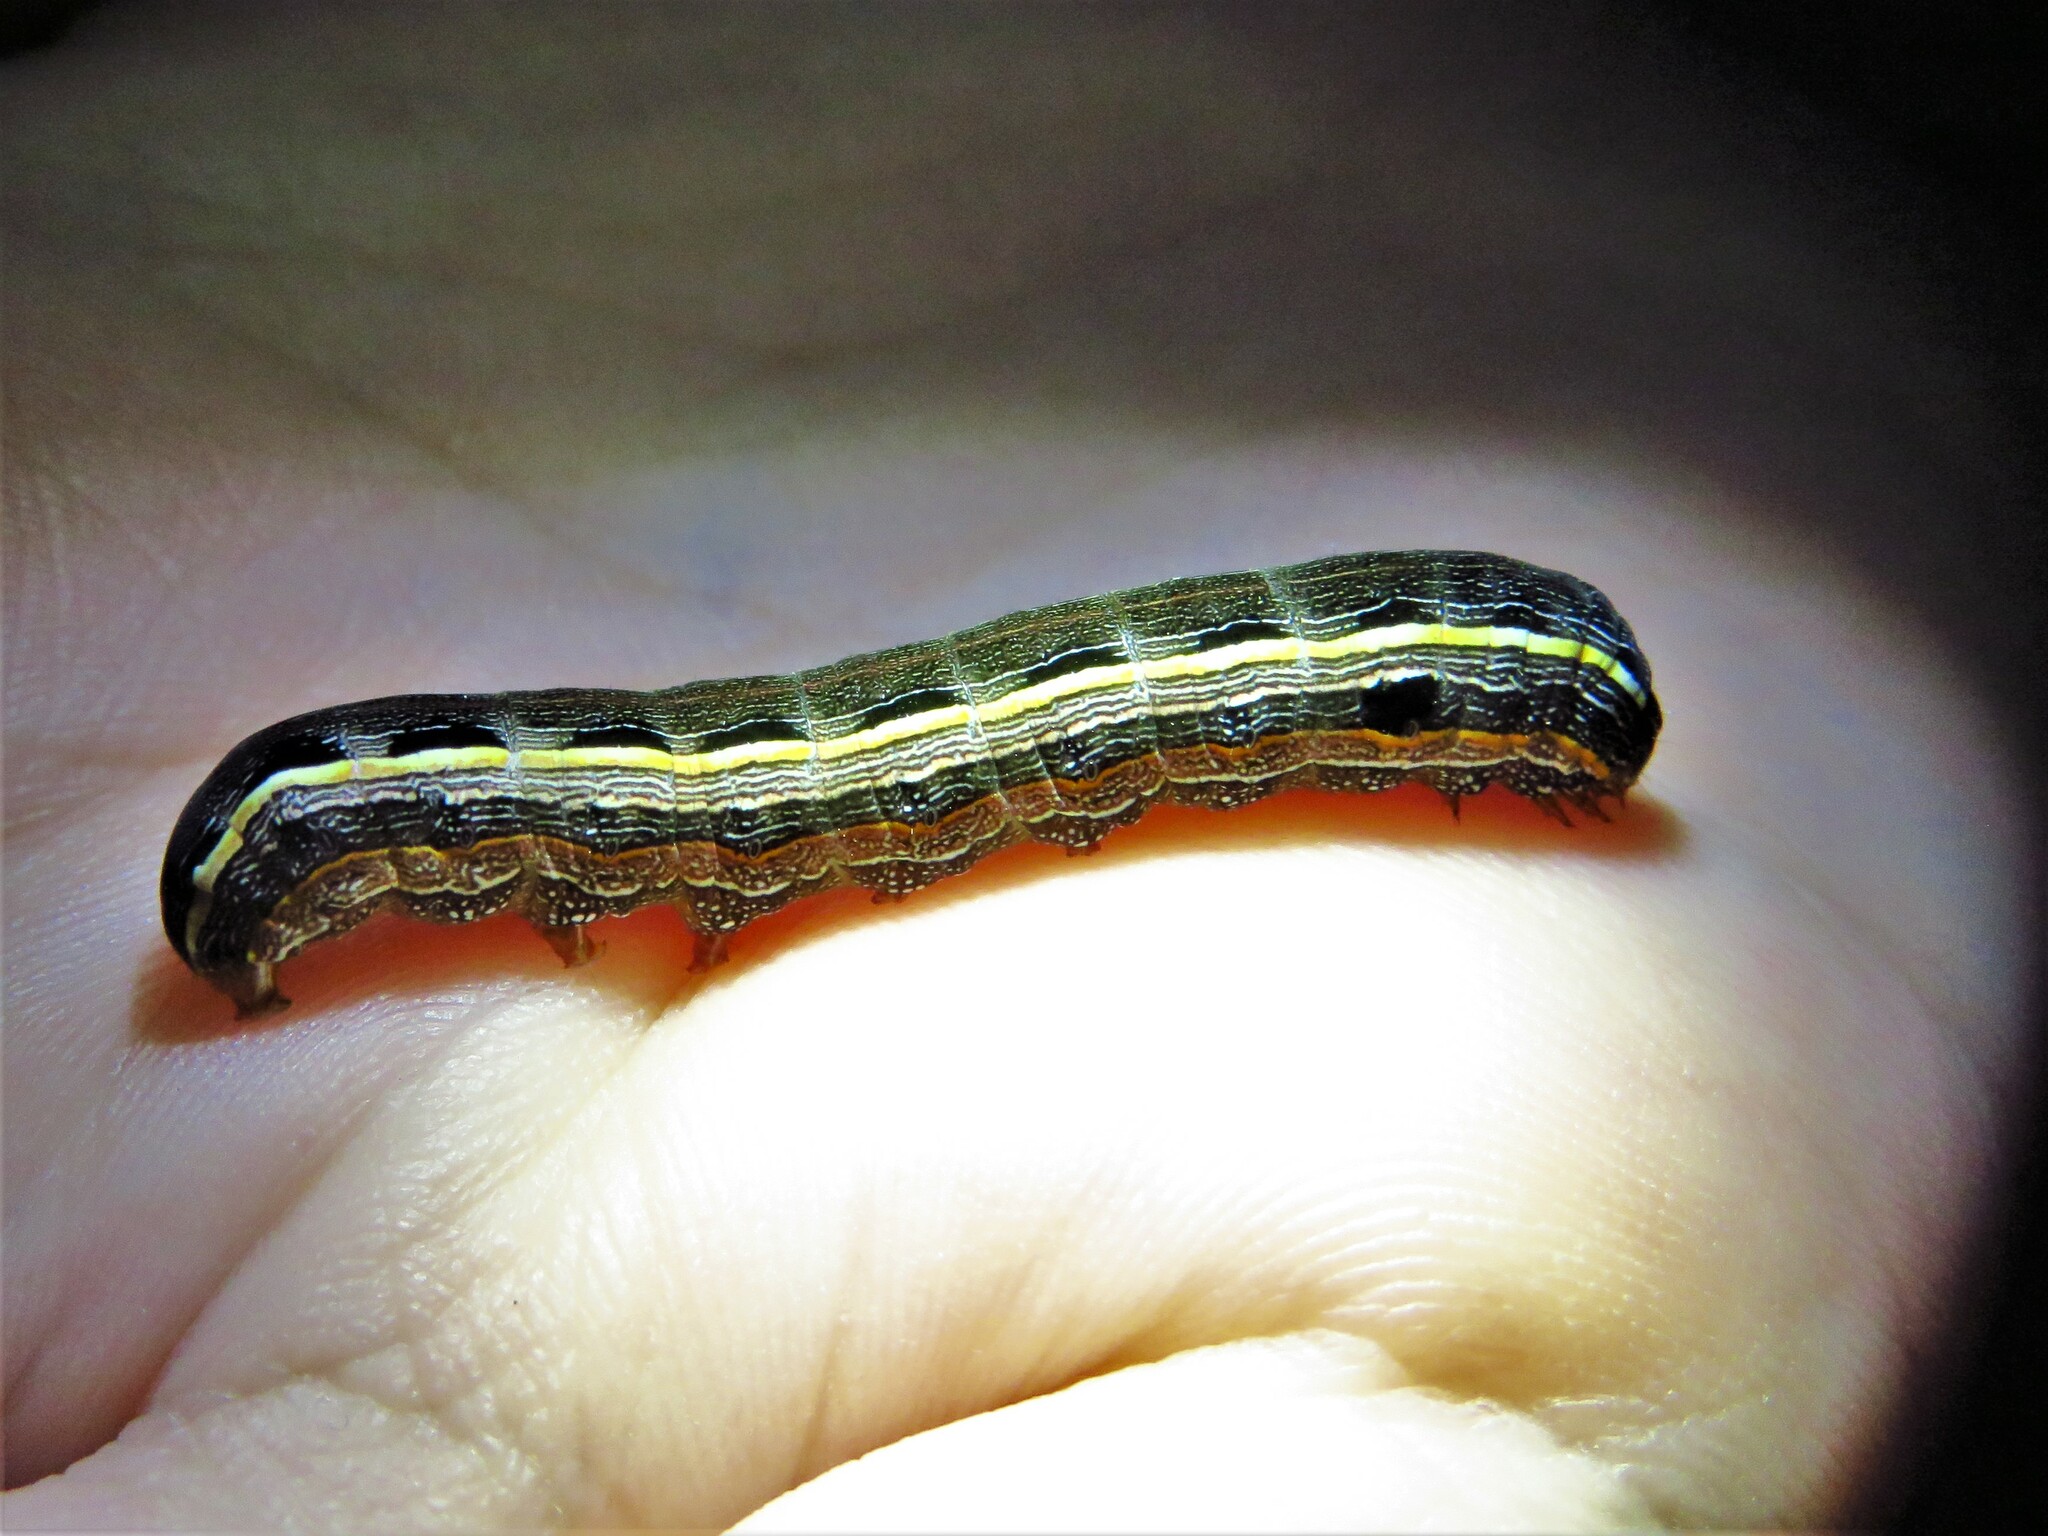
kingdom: Animalia
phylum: Arthropoda
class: Insecta
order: Lepidoptera
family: Noctuidae
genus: Spodoptera
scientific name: Spodoptera ornithogalli
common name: Yellow-striped armyworm
